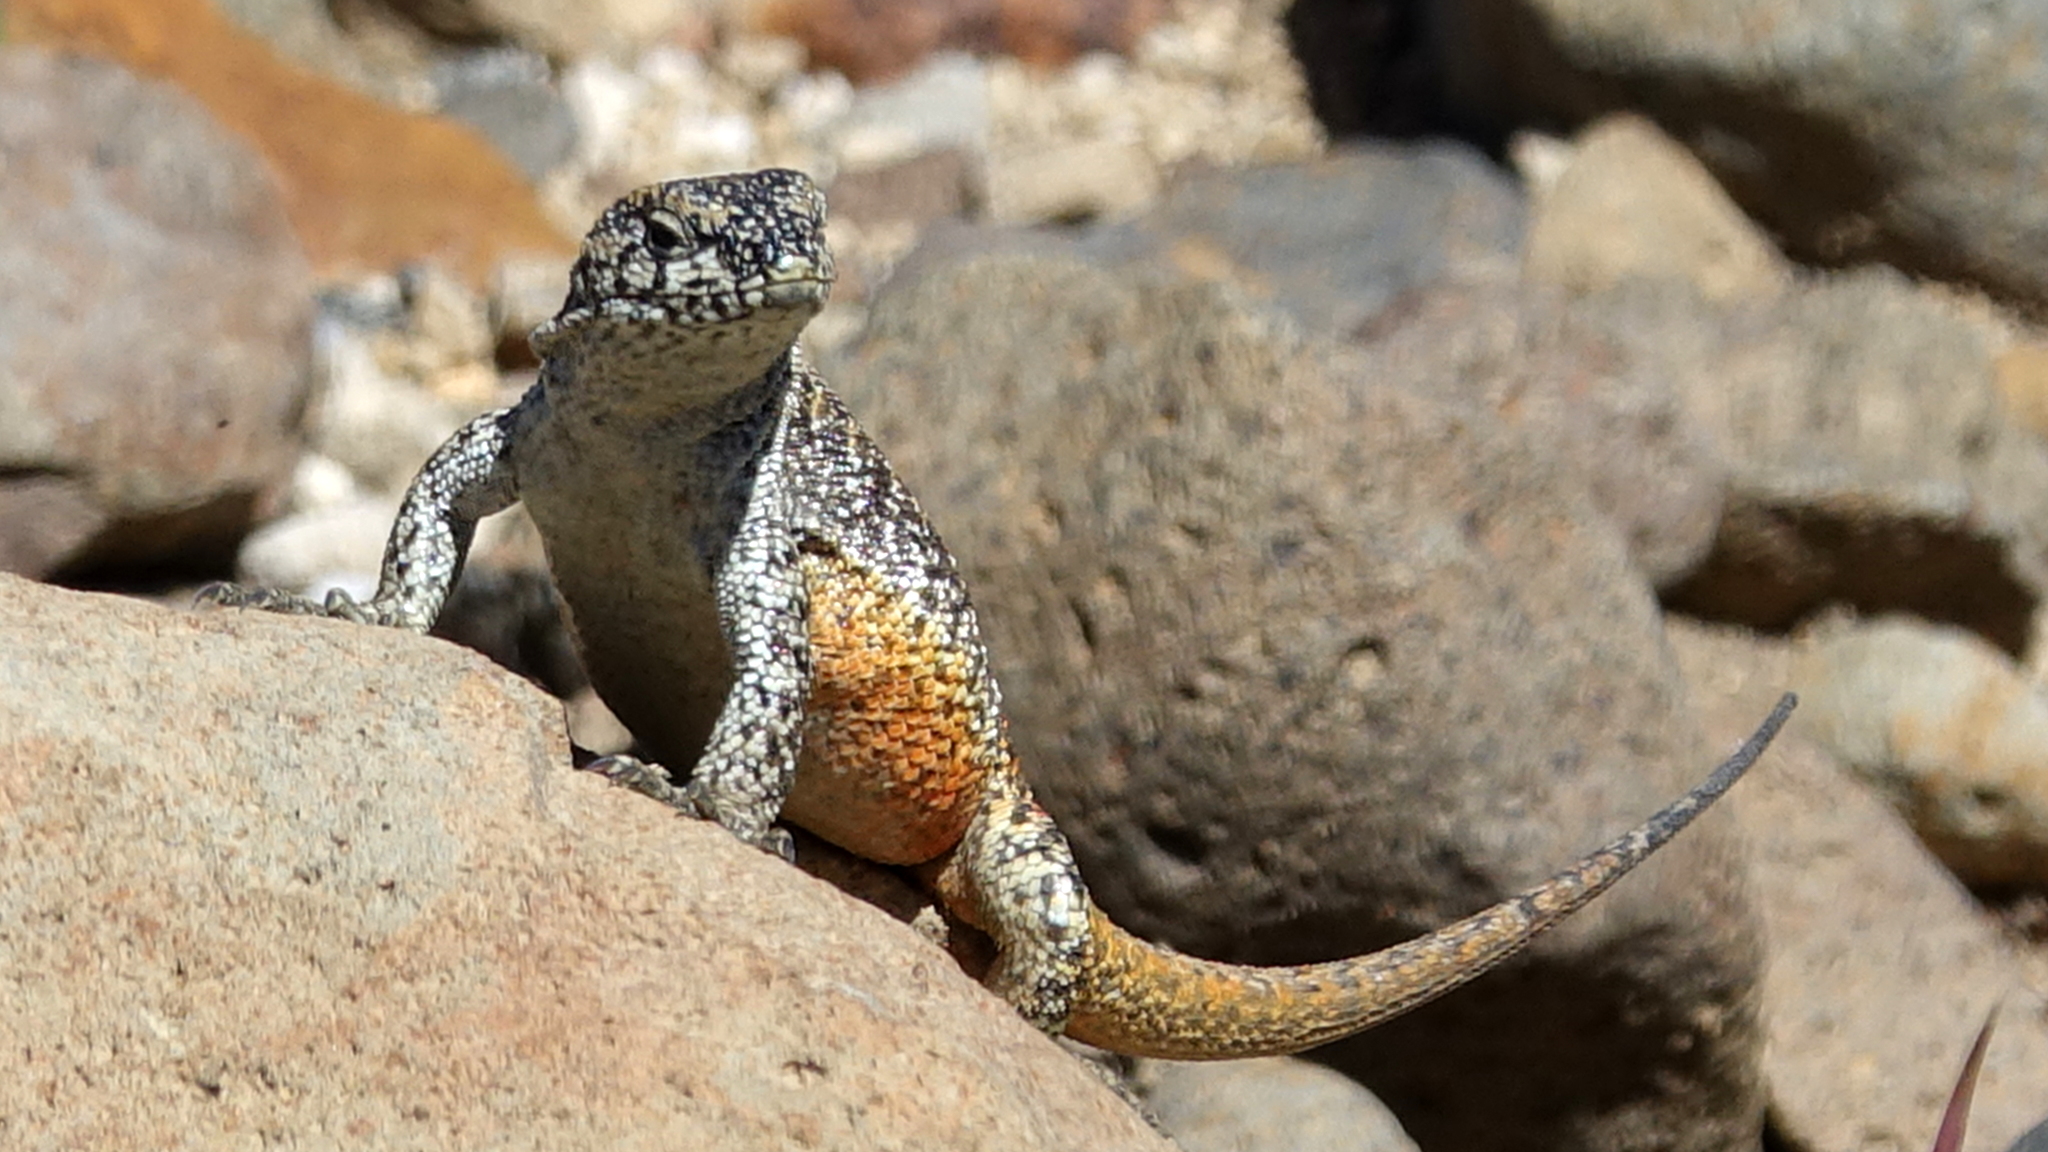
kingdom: Animalia
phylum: Chordata
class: Squamata
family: Liolaemidae
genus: Liolaemus
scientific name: Liolaemus flavipiceus
